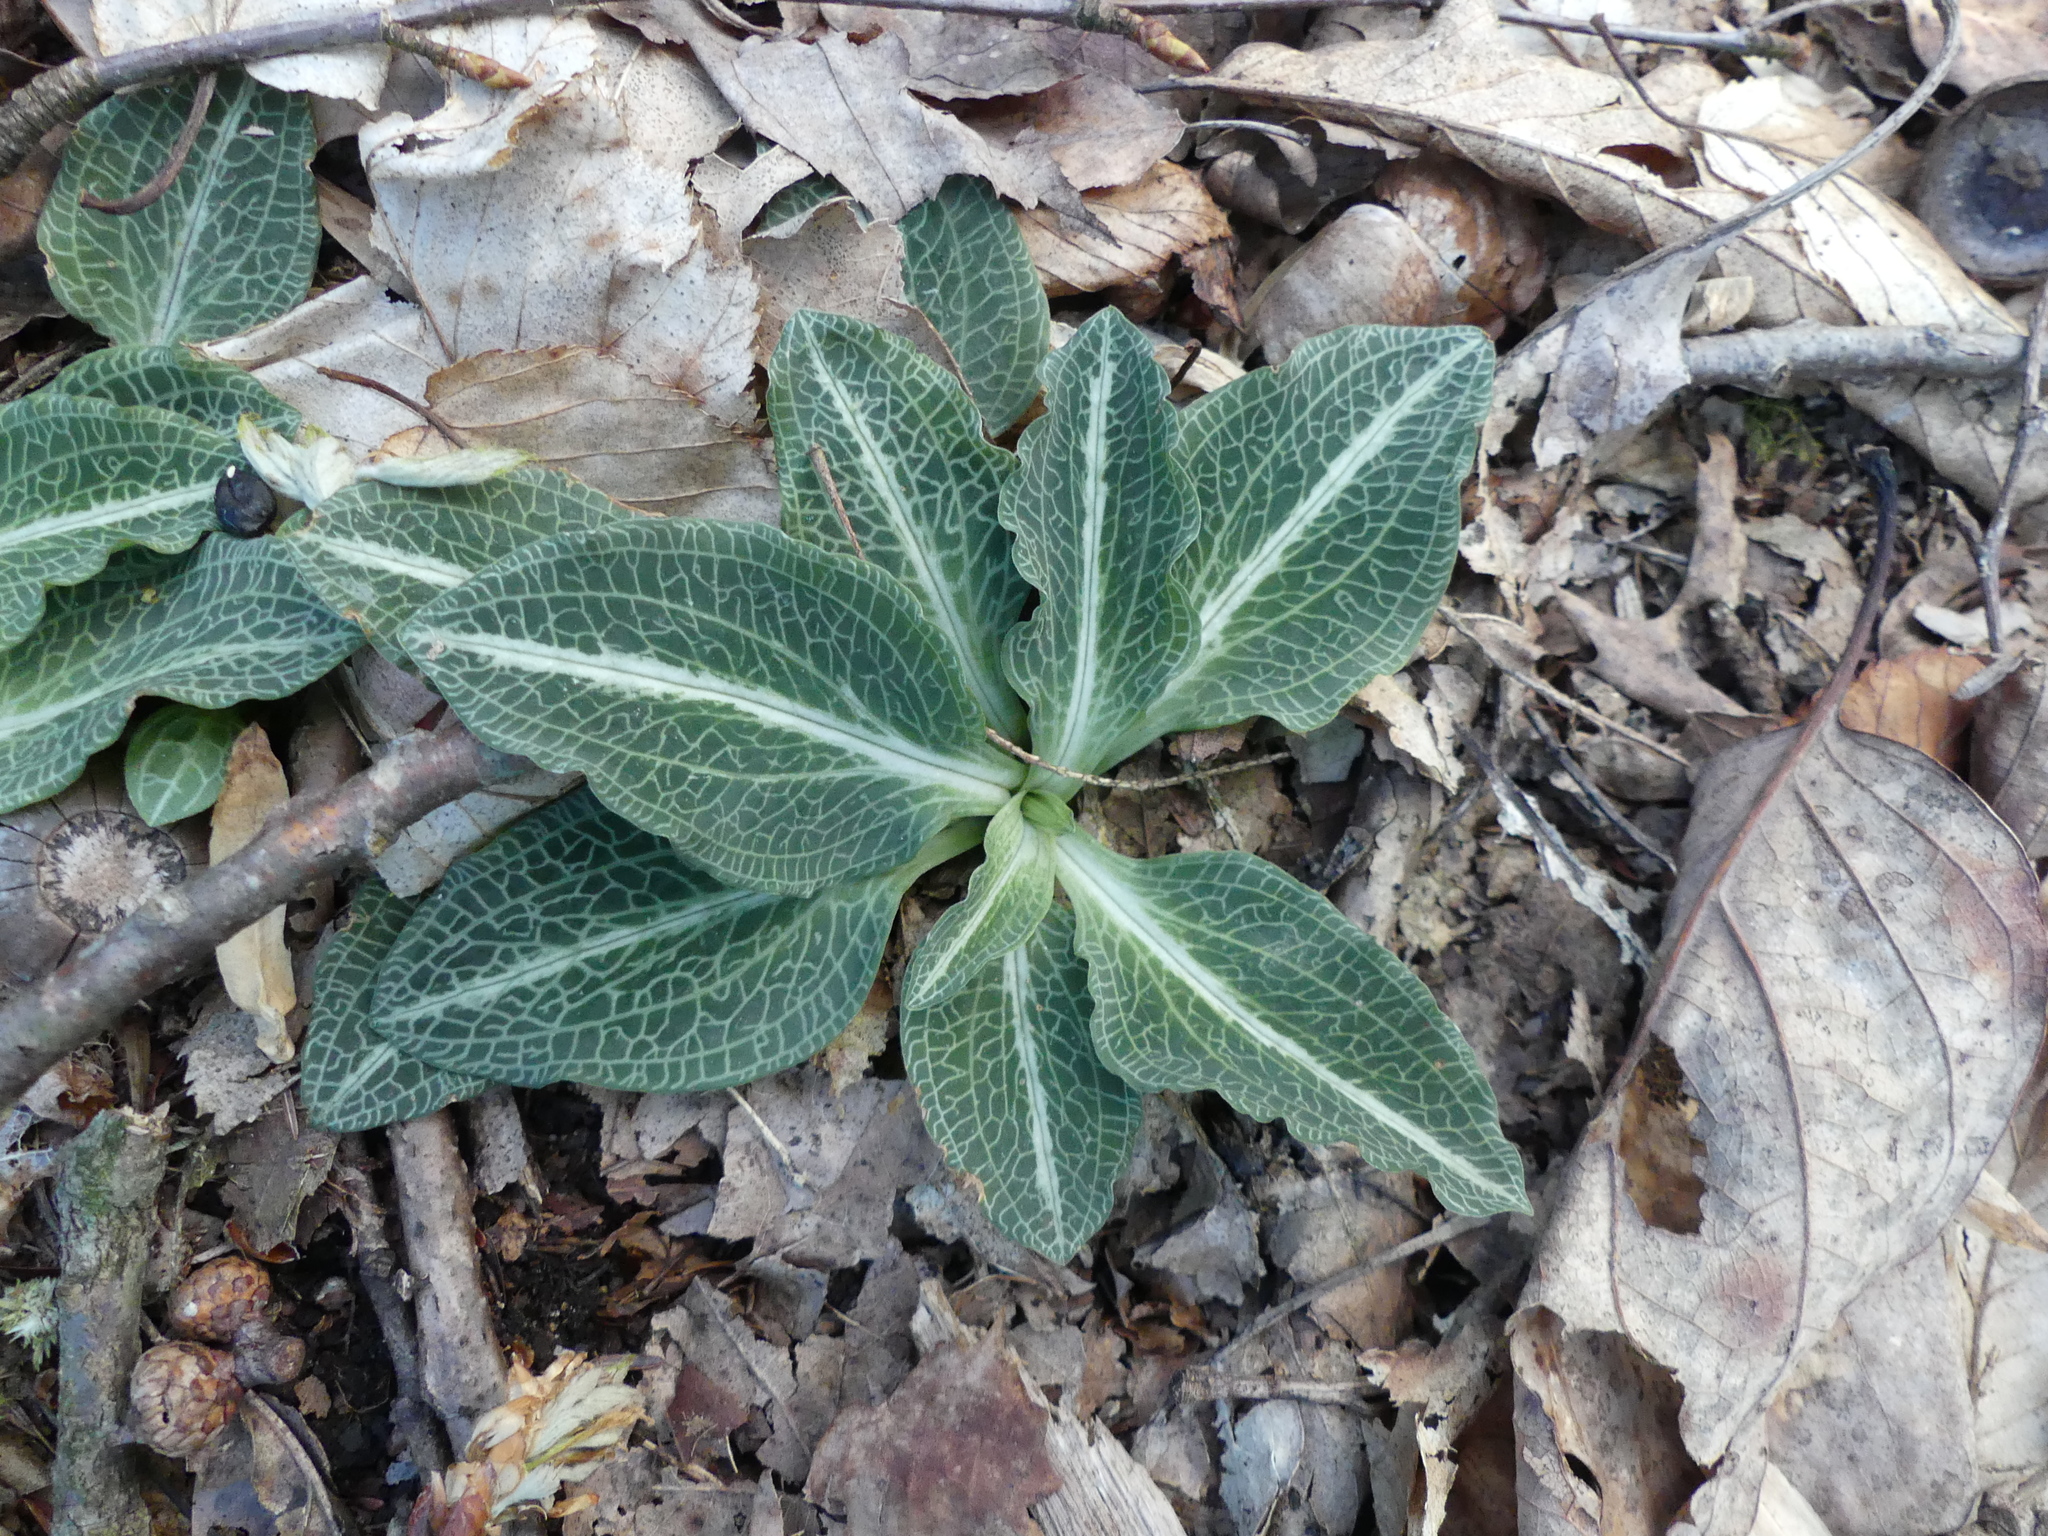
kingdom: Plantae
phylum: Tracheophyta
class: Liliopsida
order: Asparagales
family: Orchidaceae
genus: Goodyera
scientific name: Goodyera pubescens
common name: Downy rattlesnake-plantain
